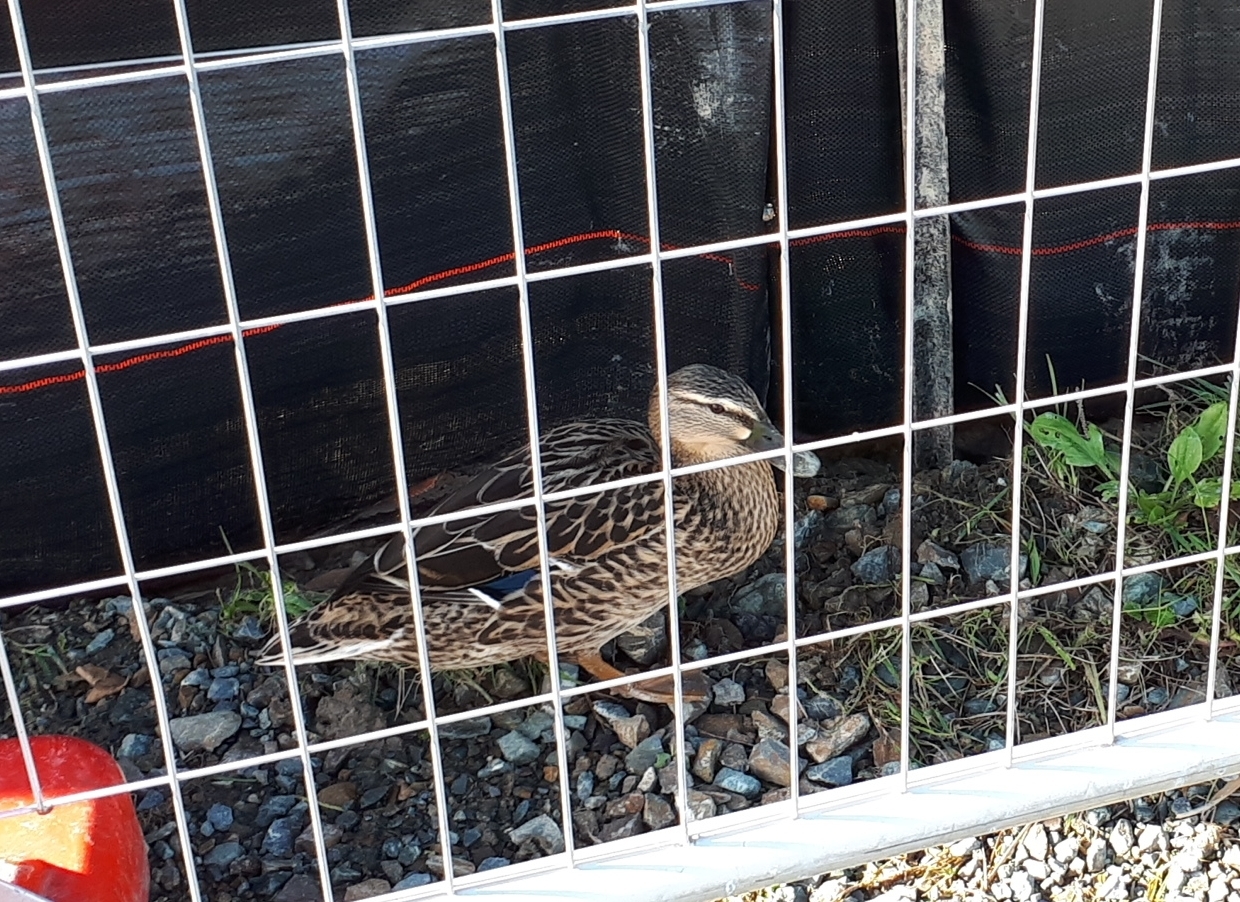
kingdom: Animalia
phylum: Chordata
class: Aves
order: Anseriformes
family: Anatidae
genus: Anas
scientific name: Anas platyrhynchos
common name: Mallard
